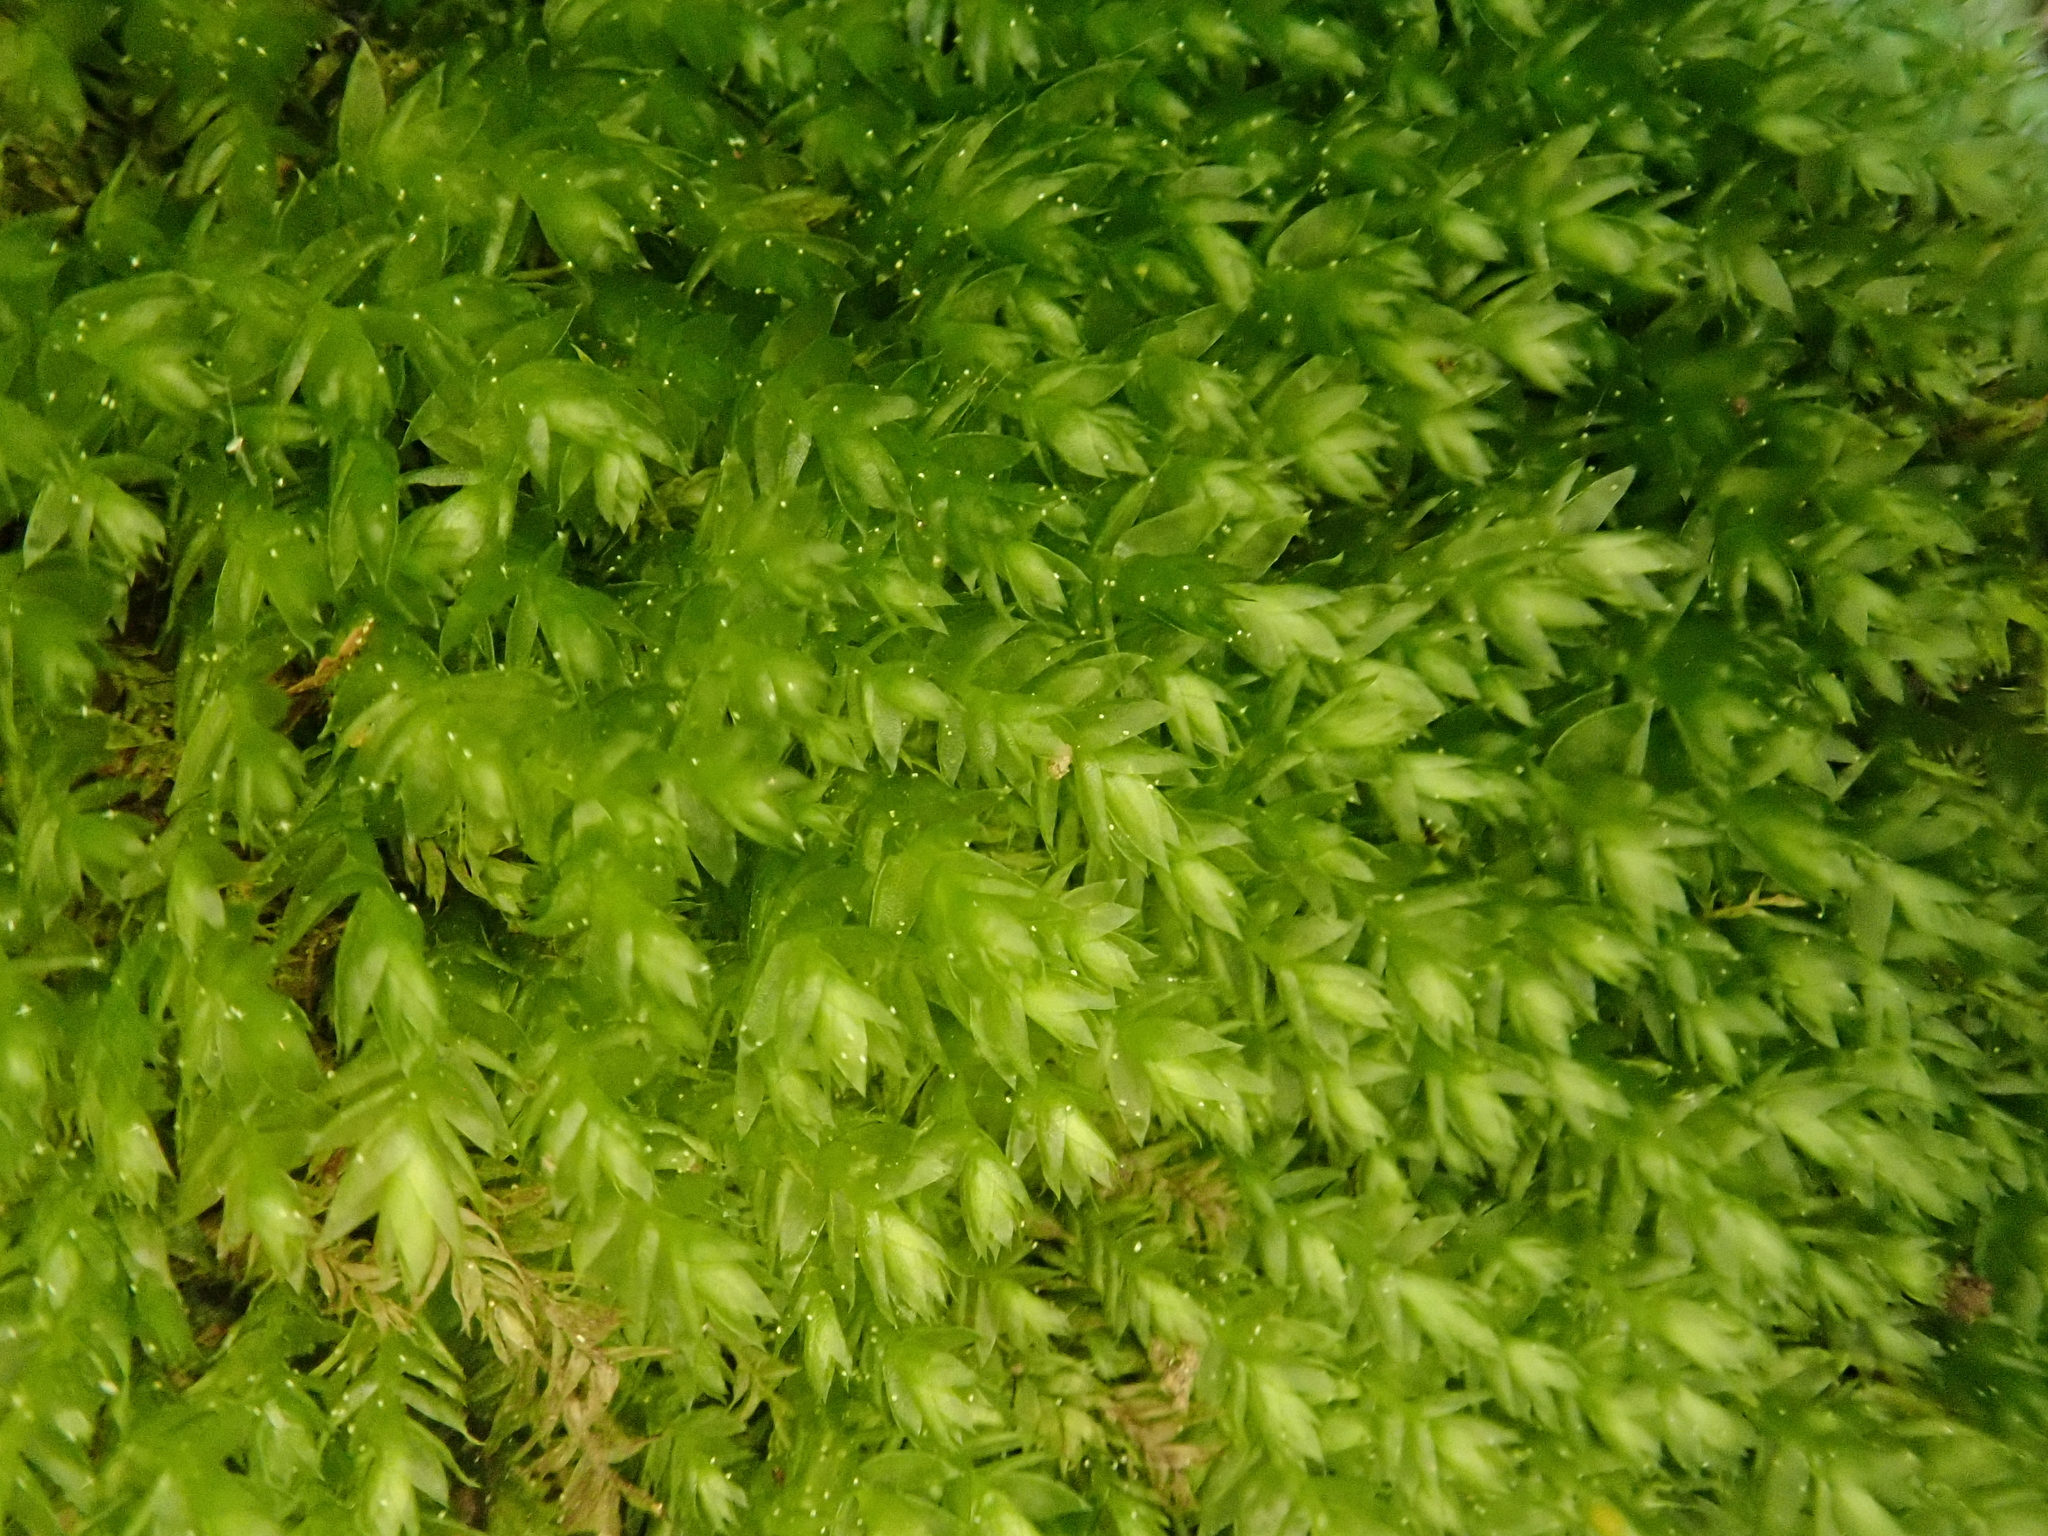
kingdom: Plantae
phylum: Bryophyta
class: Bryopsida
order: Hypnales
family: Plagiotheciaceae
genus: Plagiothecium
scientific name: Plagiothecium cavifolium
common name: Round silk moss
